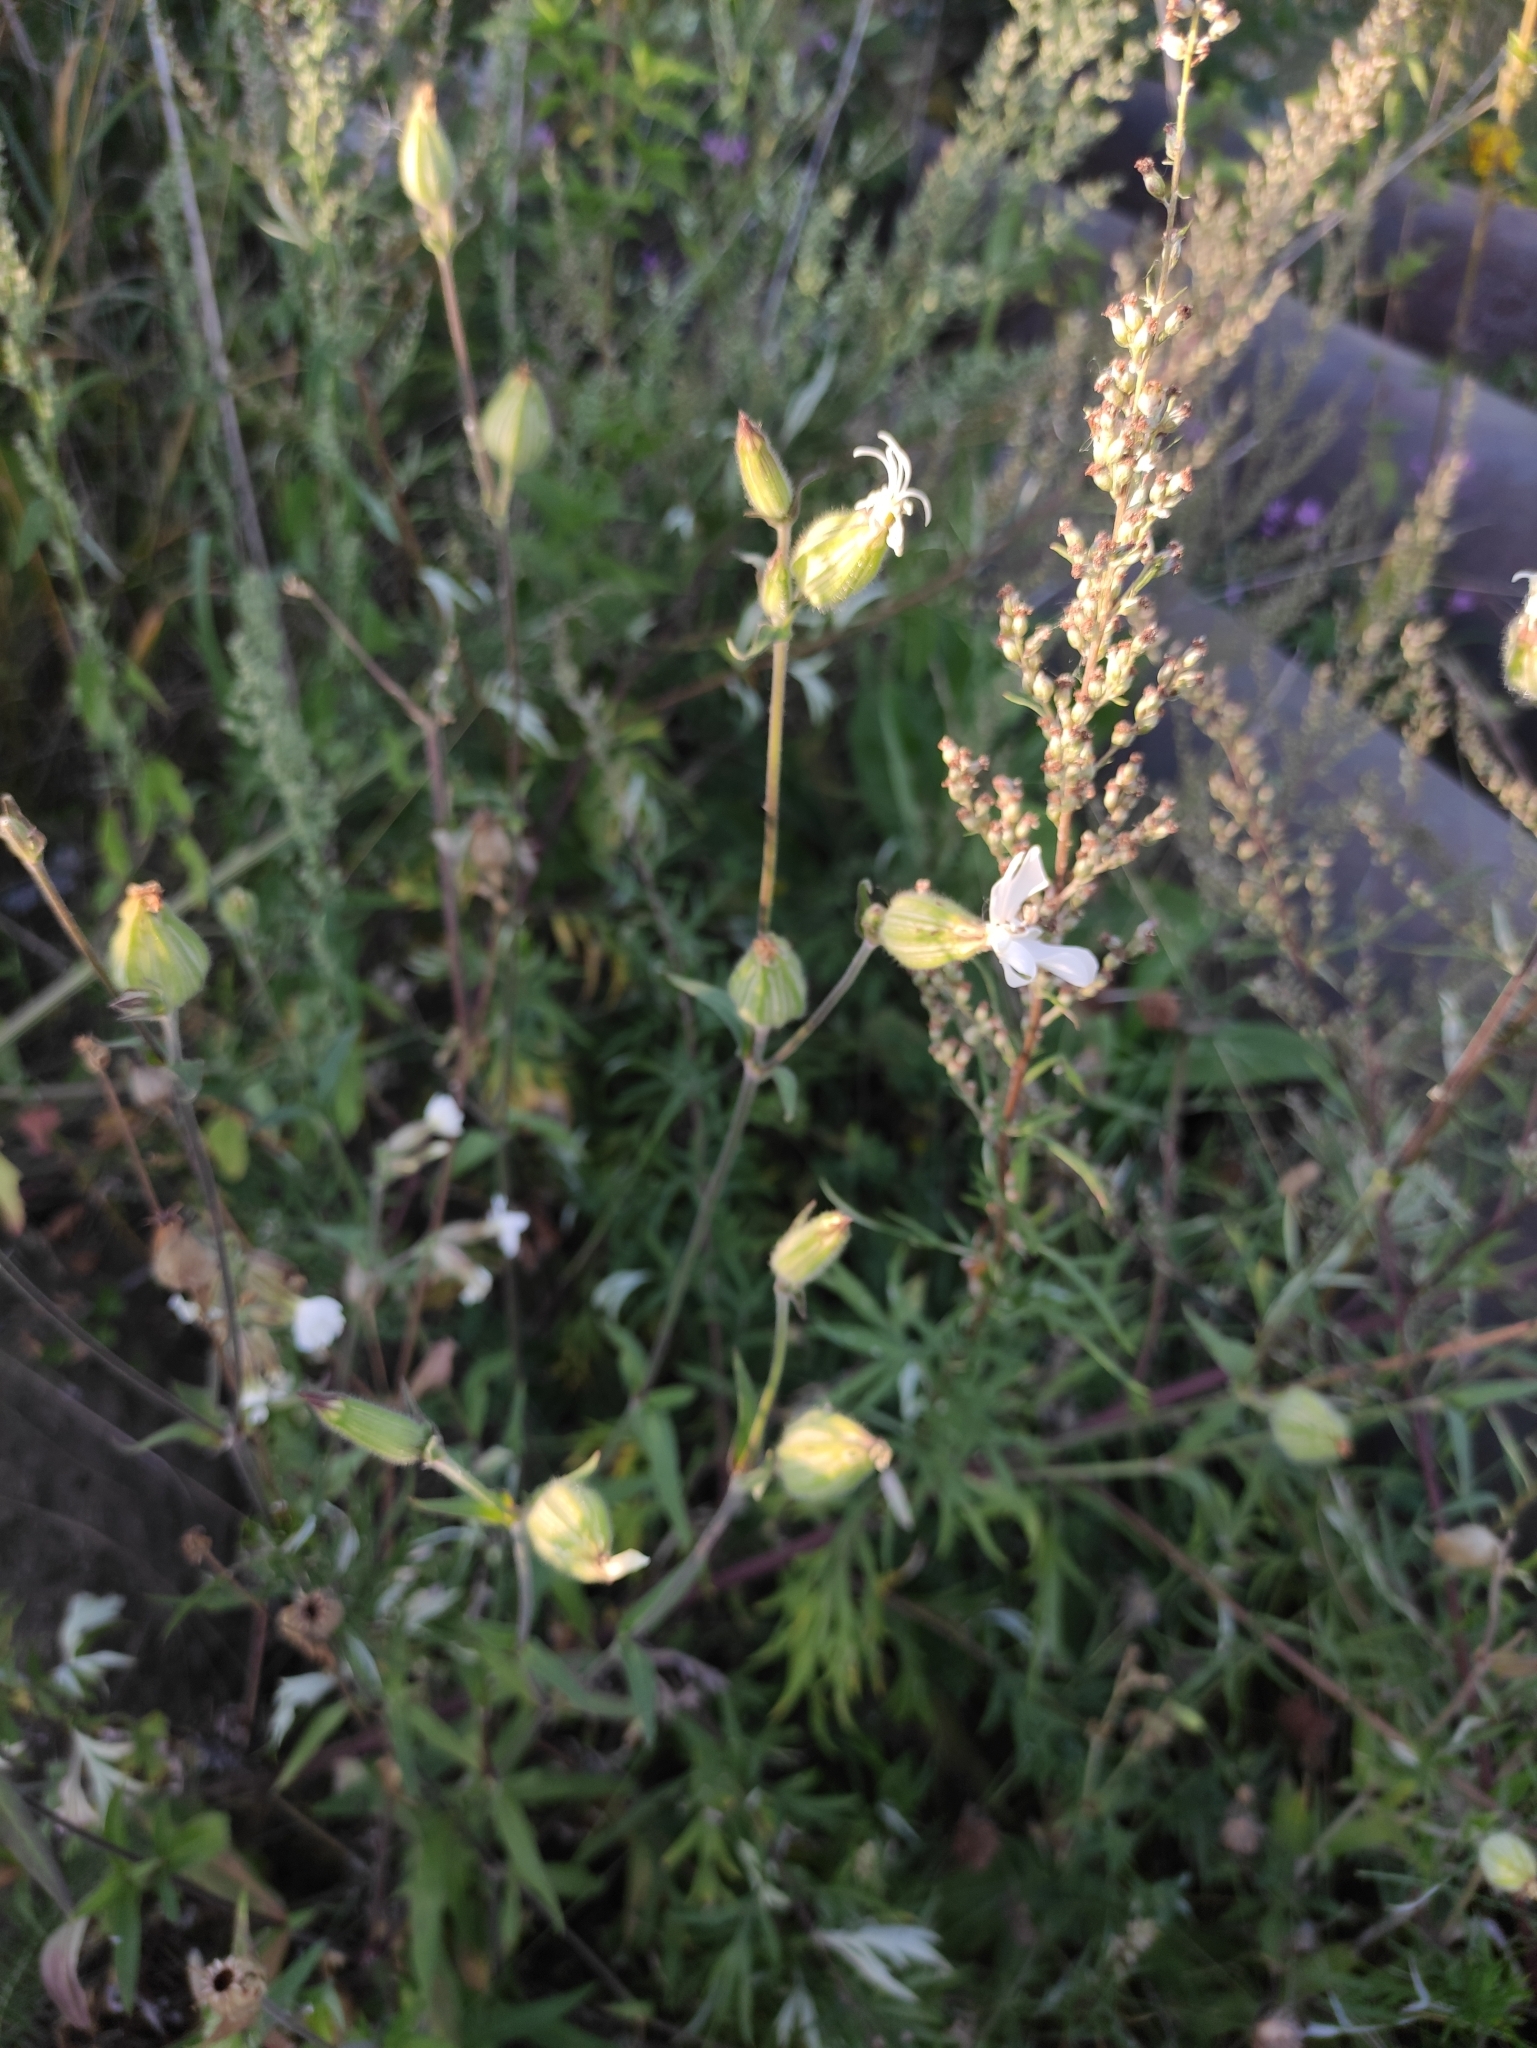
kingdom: Plantae
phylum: Tracheophyta
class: Magnoliopsida
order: Caryophyllales
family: Caryophyllaceae
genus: Silene
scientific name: Silene latifolia
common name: White campion
